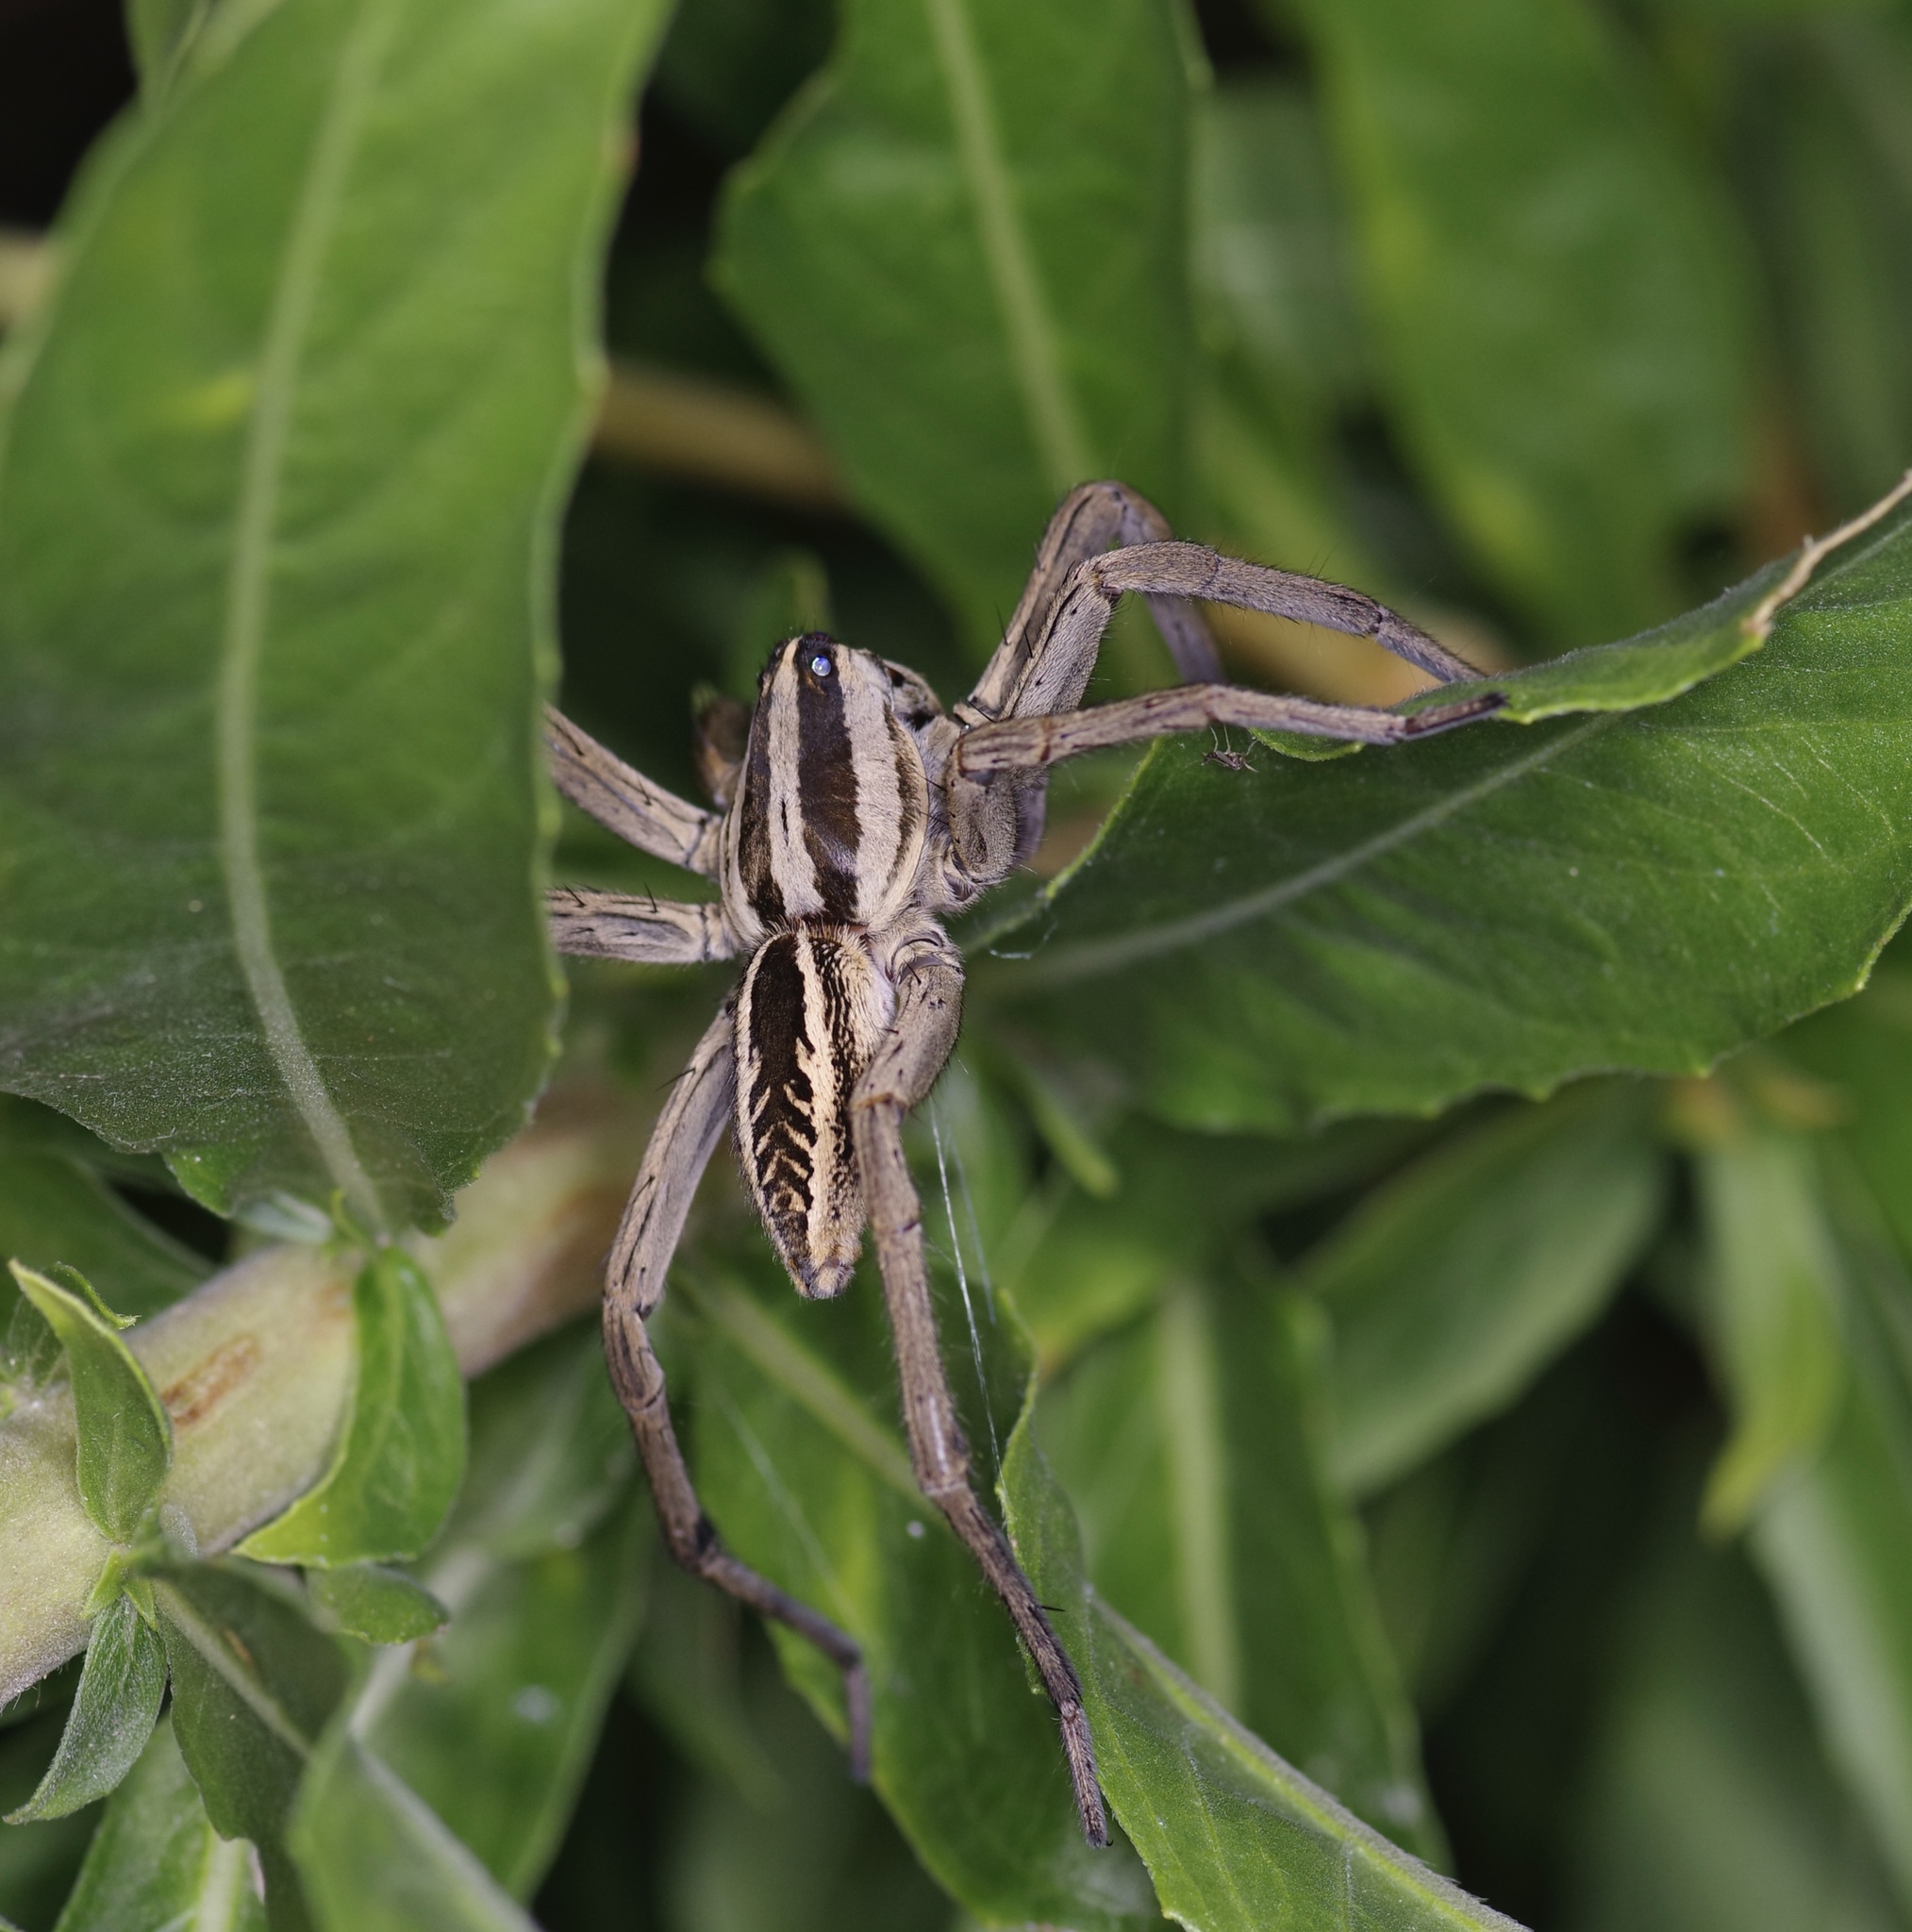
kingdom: Animalia
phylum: Arthropoda
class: Arachnida
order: Araneae
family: Lycosidae
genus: Rabidosa
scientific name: Rabidosa rabida
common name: Rabid wolf spider
